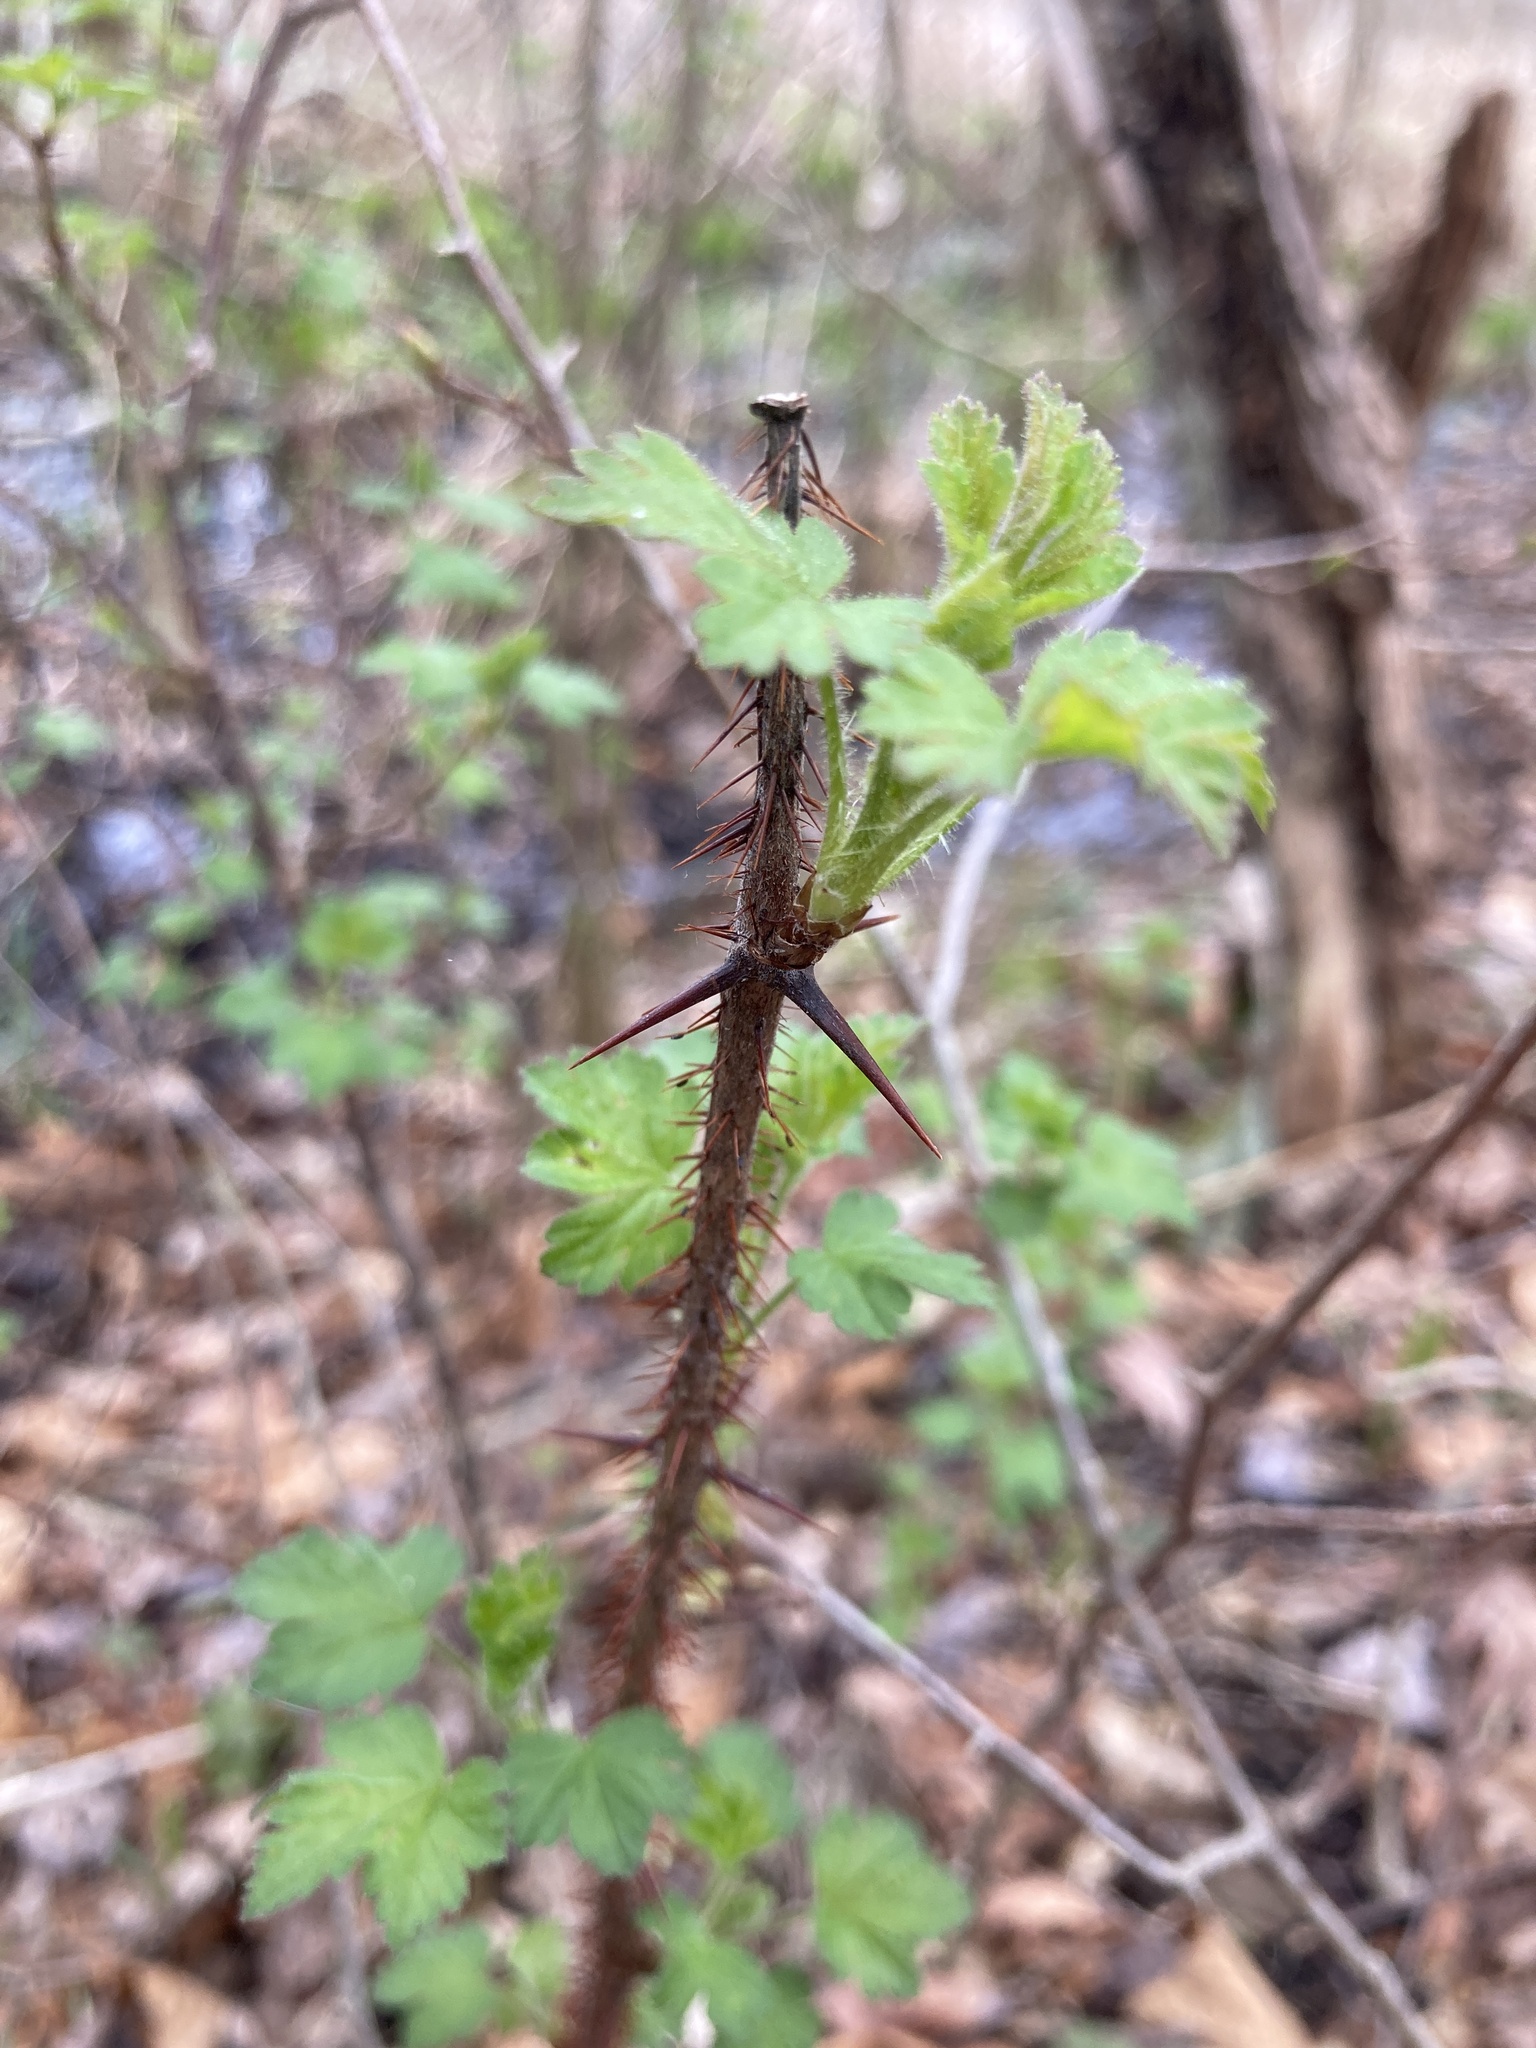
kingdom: Plantae
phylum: Tracheophyta
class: Magnoliopsida
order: Saxifragales
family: Grossulariaceae
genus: Ribes
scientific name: Ribes cynosbati
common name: American gooseberry
